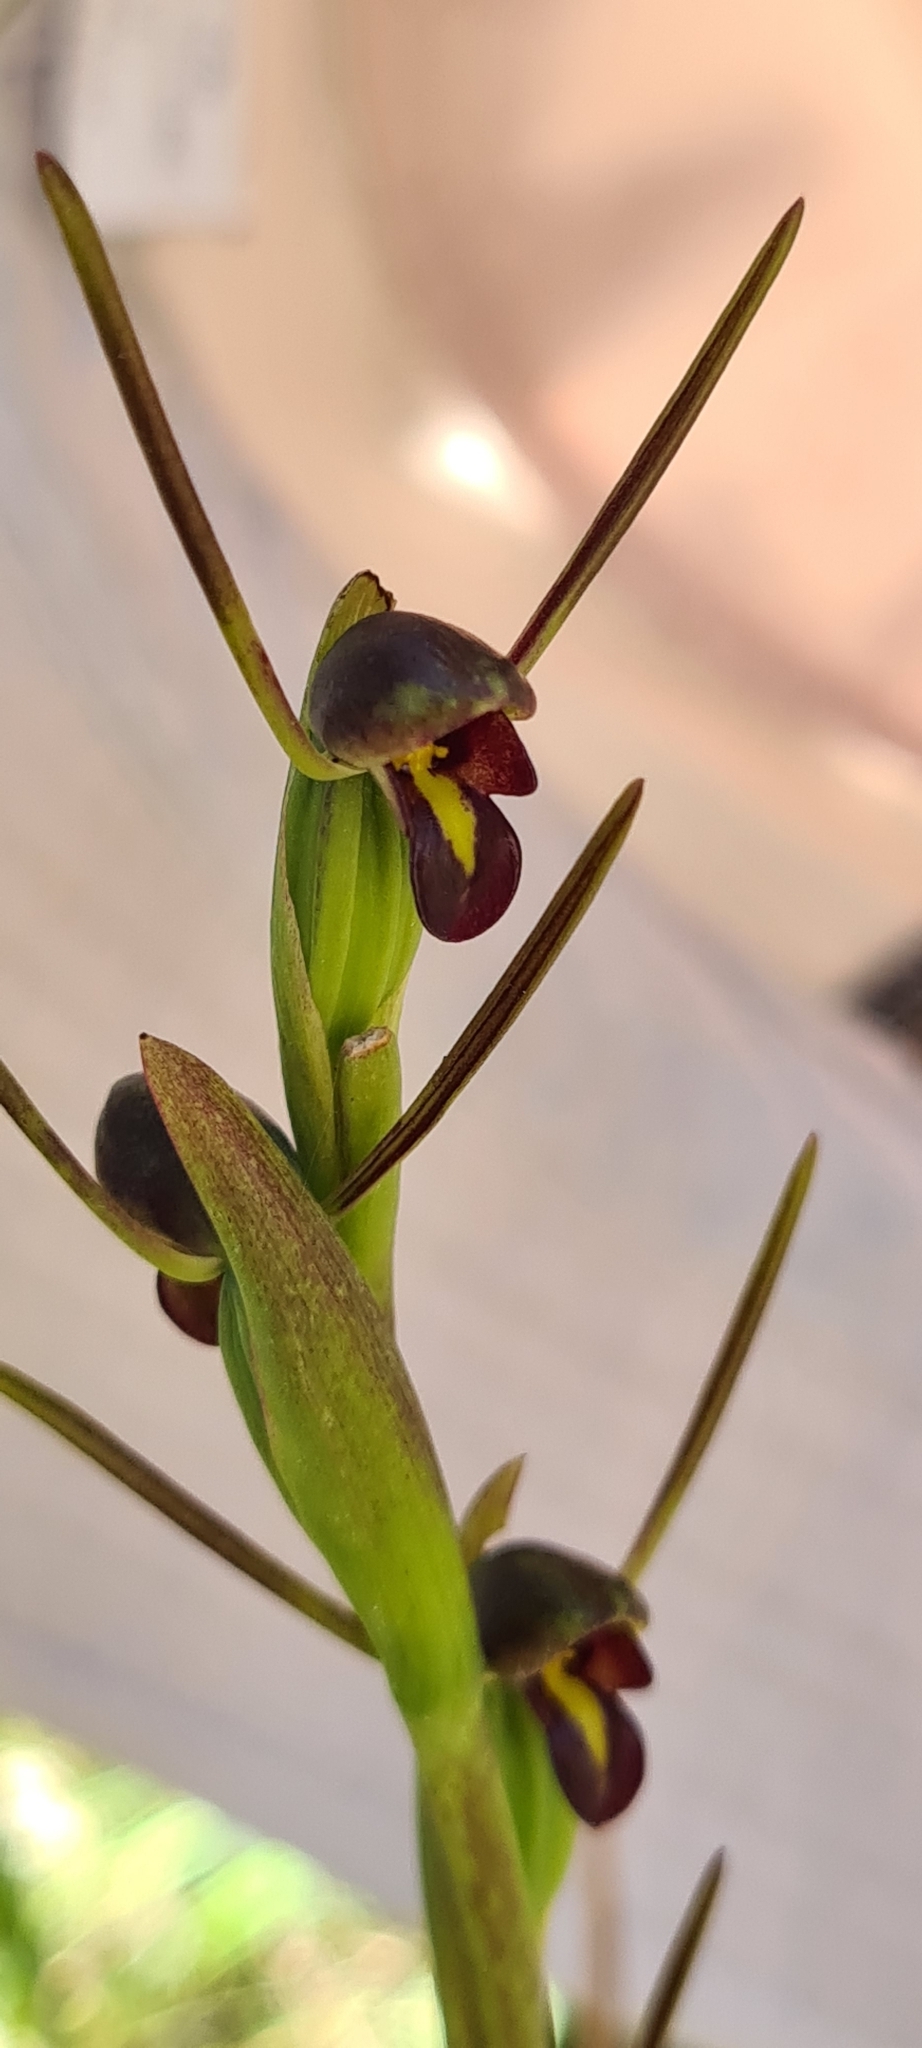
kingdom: Plantae
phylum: Tracheophyta
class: Liliopsida
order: Asparagales
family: Orchidaceae
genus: Orthoceras
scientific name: Orthoceras strictum
